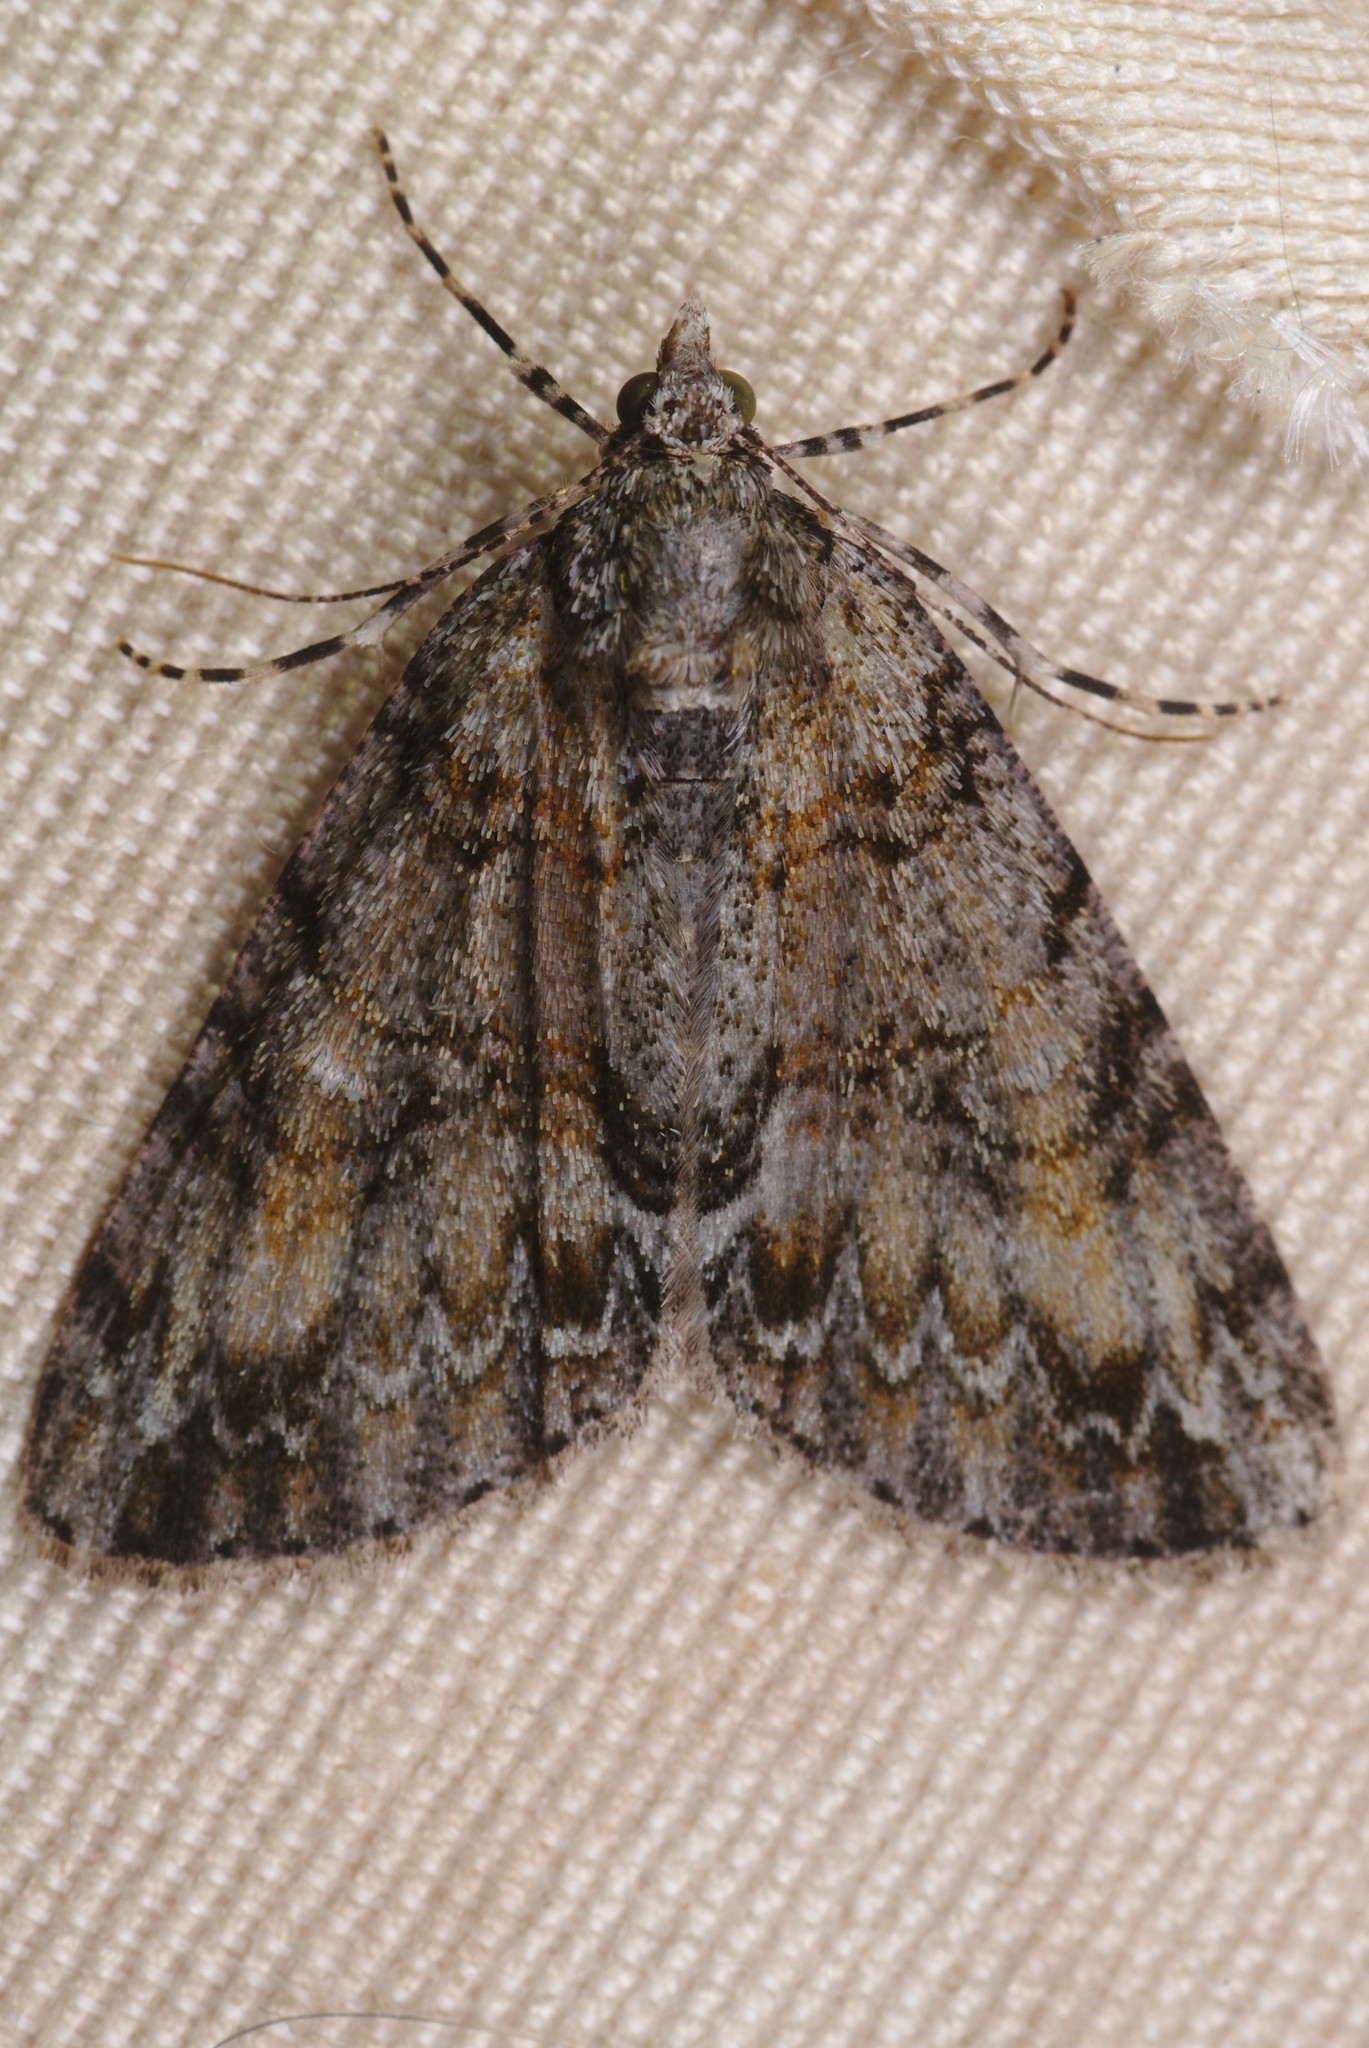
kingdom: Animalia
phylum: Arthropoda
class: Insecta
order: Lepidoptera
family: Geometridae
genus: Pseudocoremia
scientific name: Pseudocoremia suavis
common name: Common forest looper
